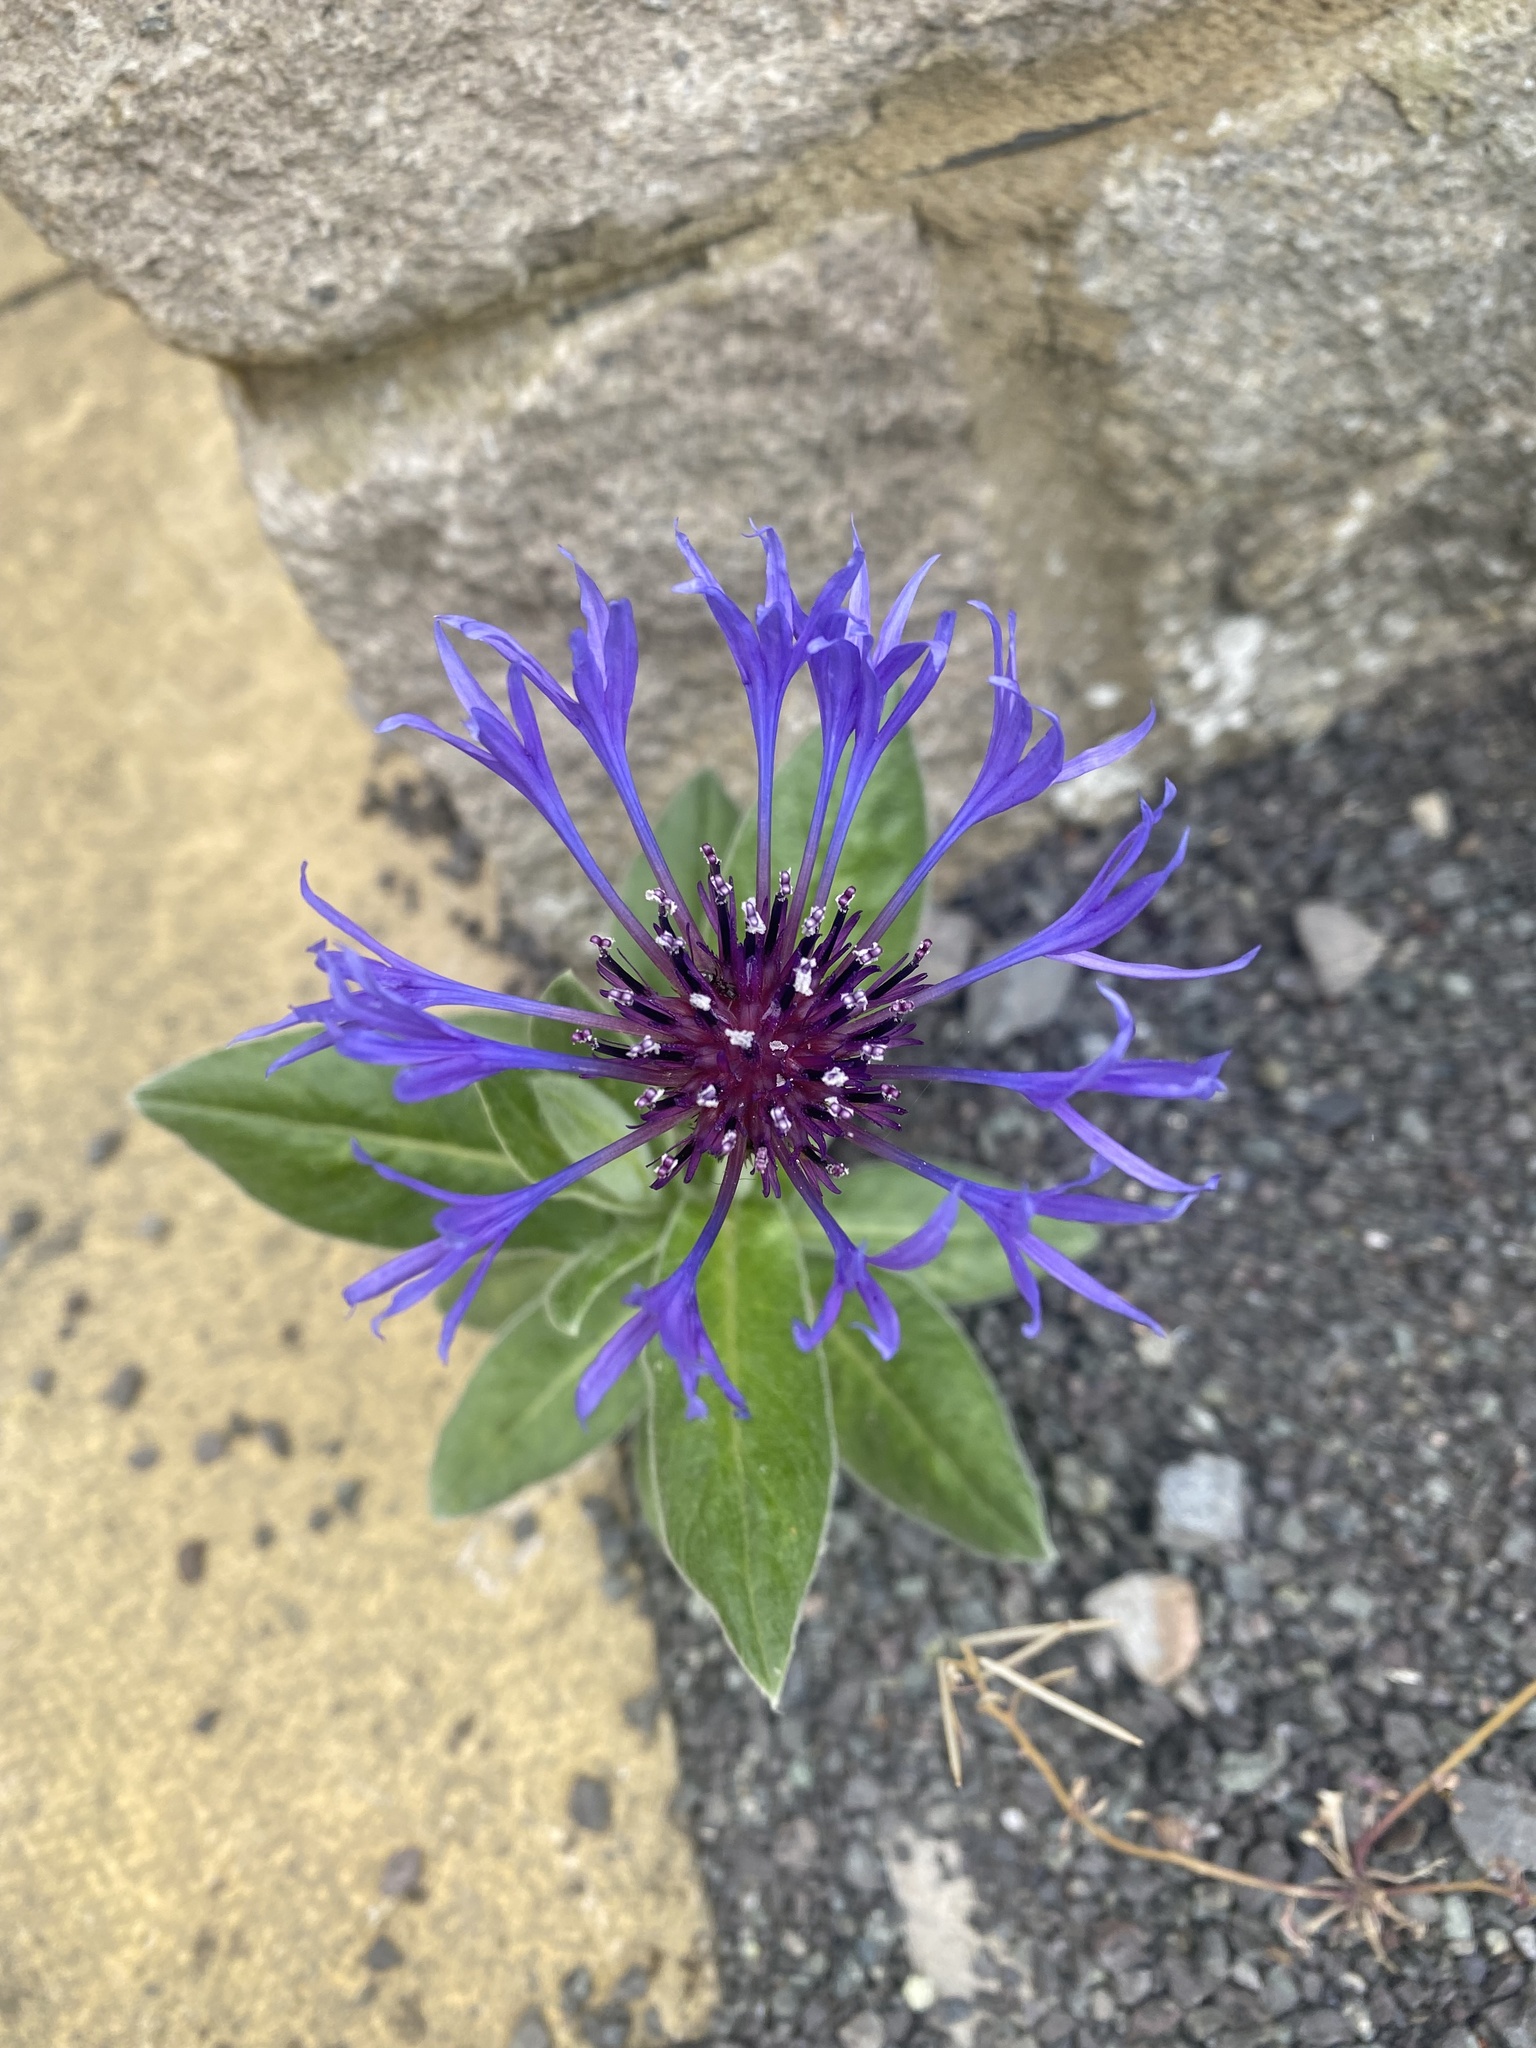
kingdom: Plantae
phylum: Tracheophyta
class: Magnoliopsida
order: Asterales
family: Asteraceae
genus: Centaurea
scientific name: Centaurea montana
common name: Perennial cornflower
